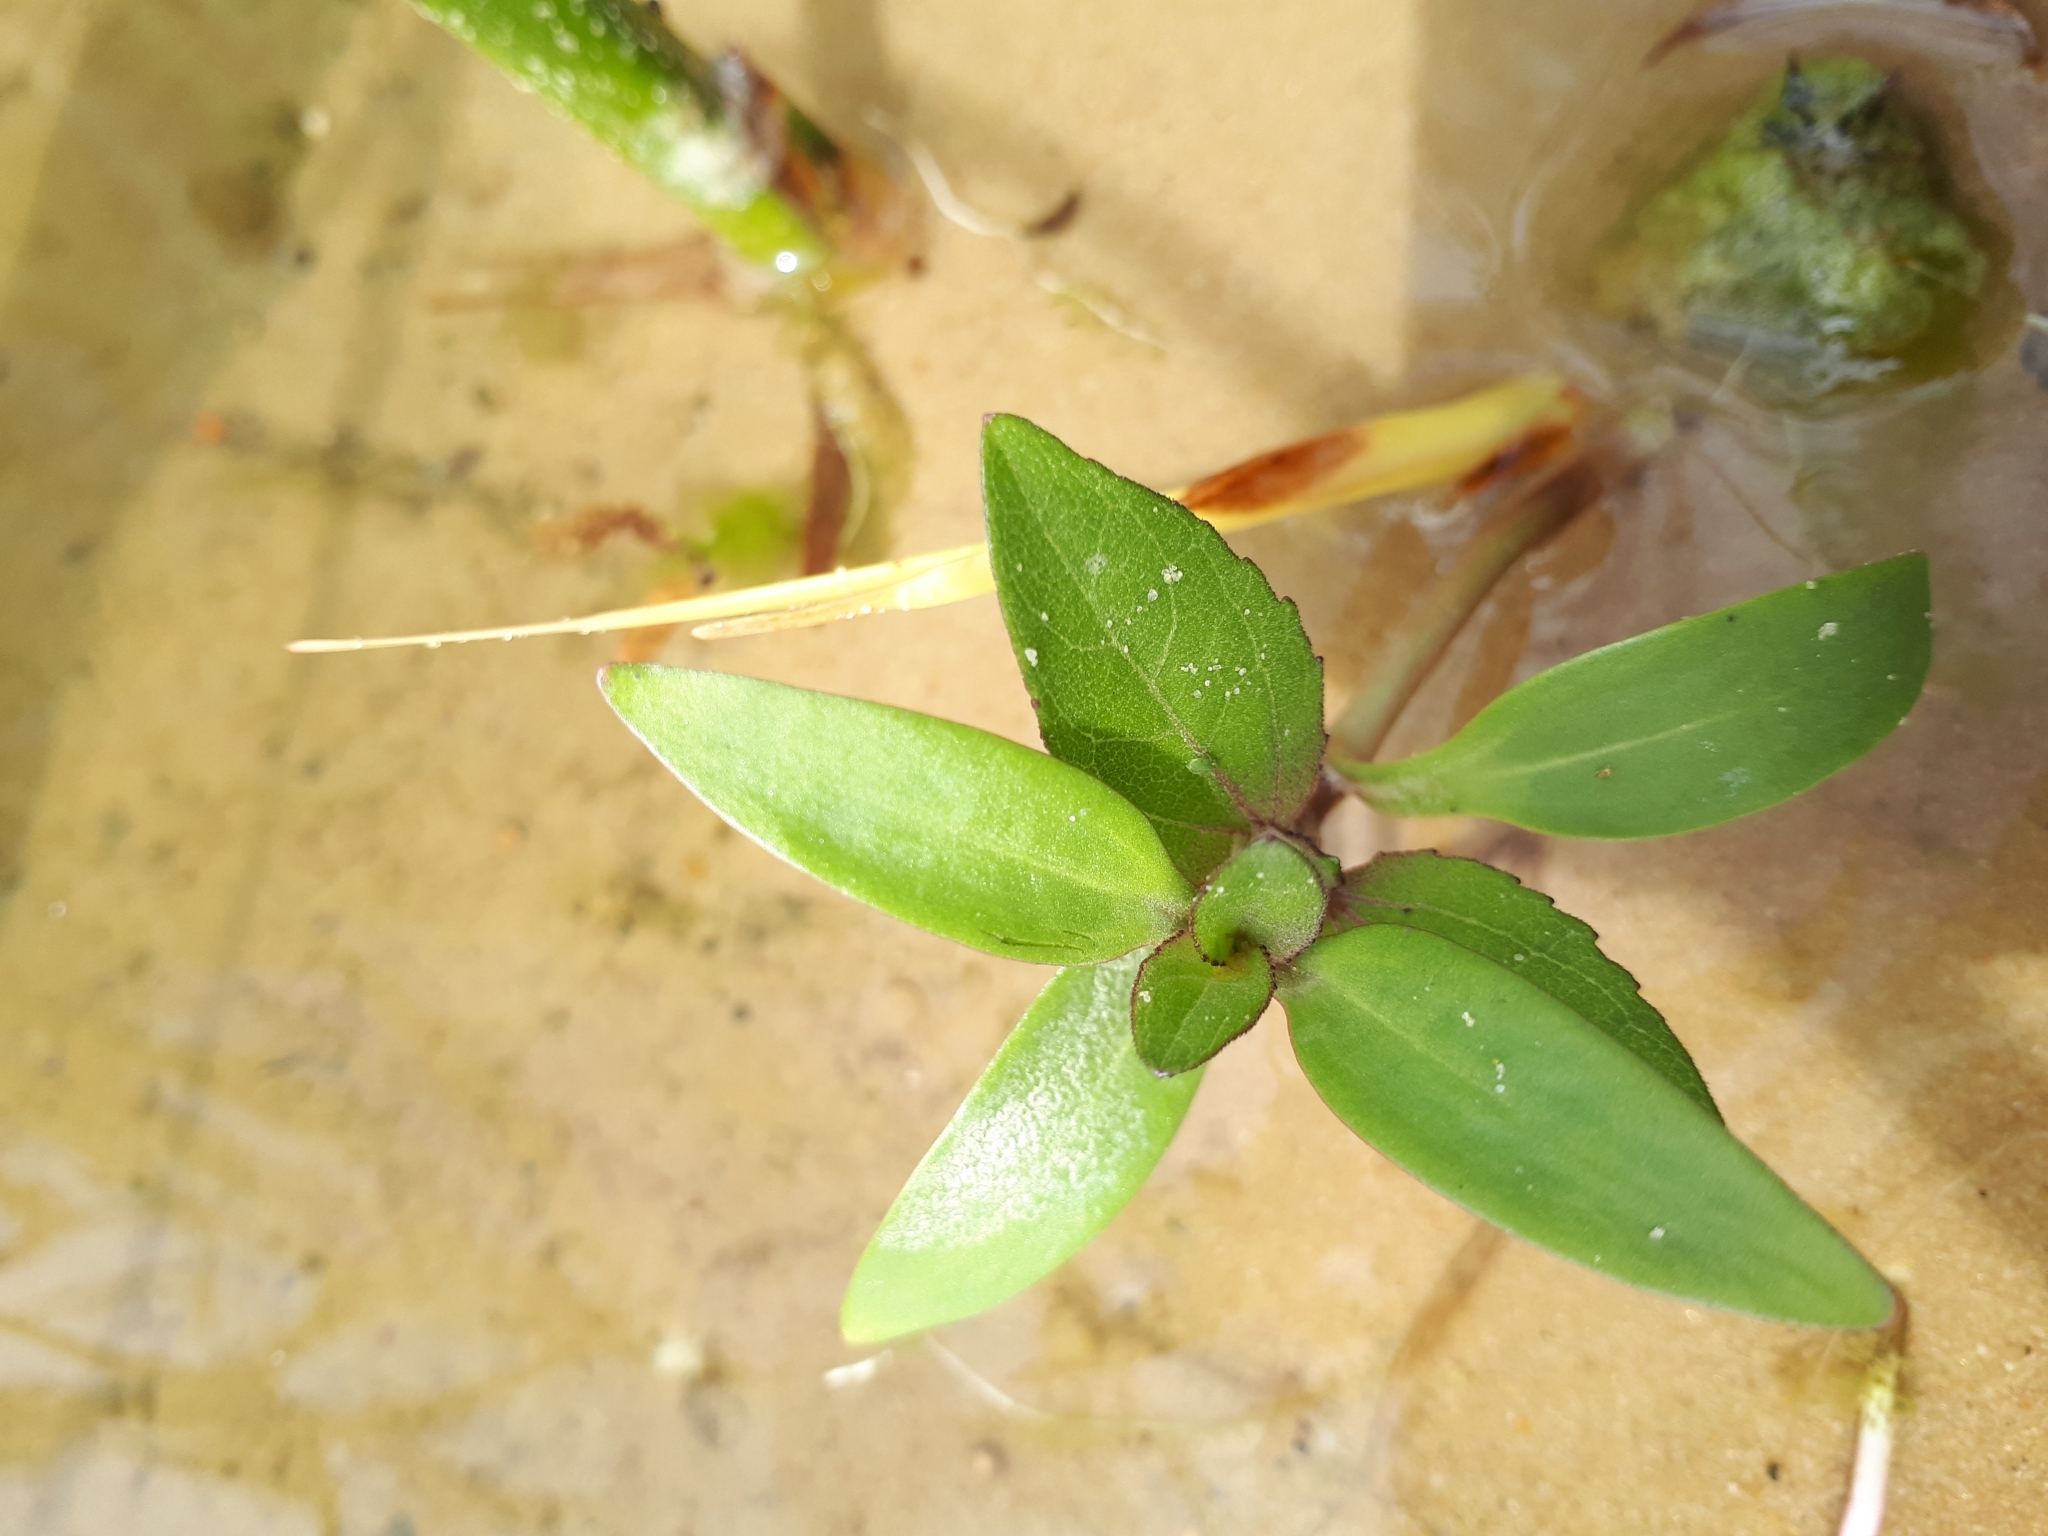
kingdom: Plantae
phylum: Tracheophyta
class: Magnoliopsida
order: Asterales
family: Asteraceae
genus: Xanthium
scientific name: Xanthium orientale
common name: Californian burr
